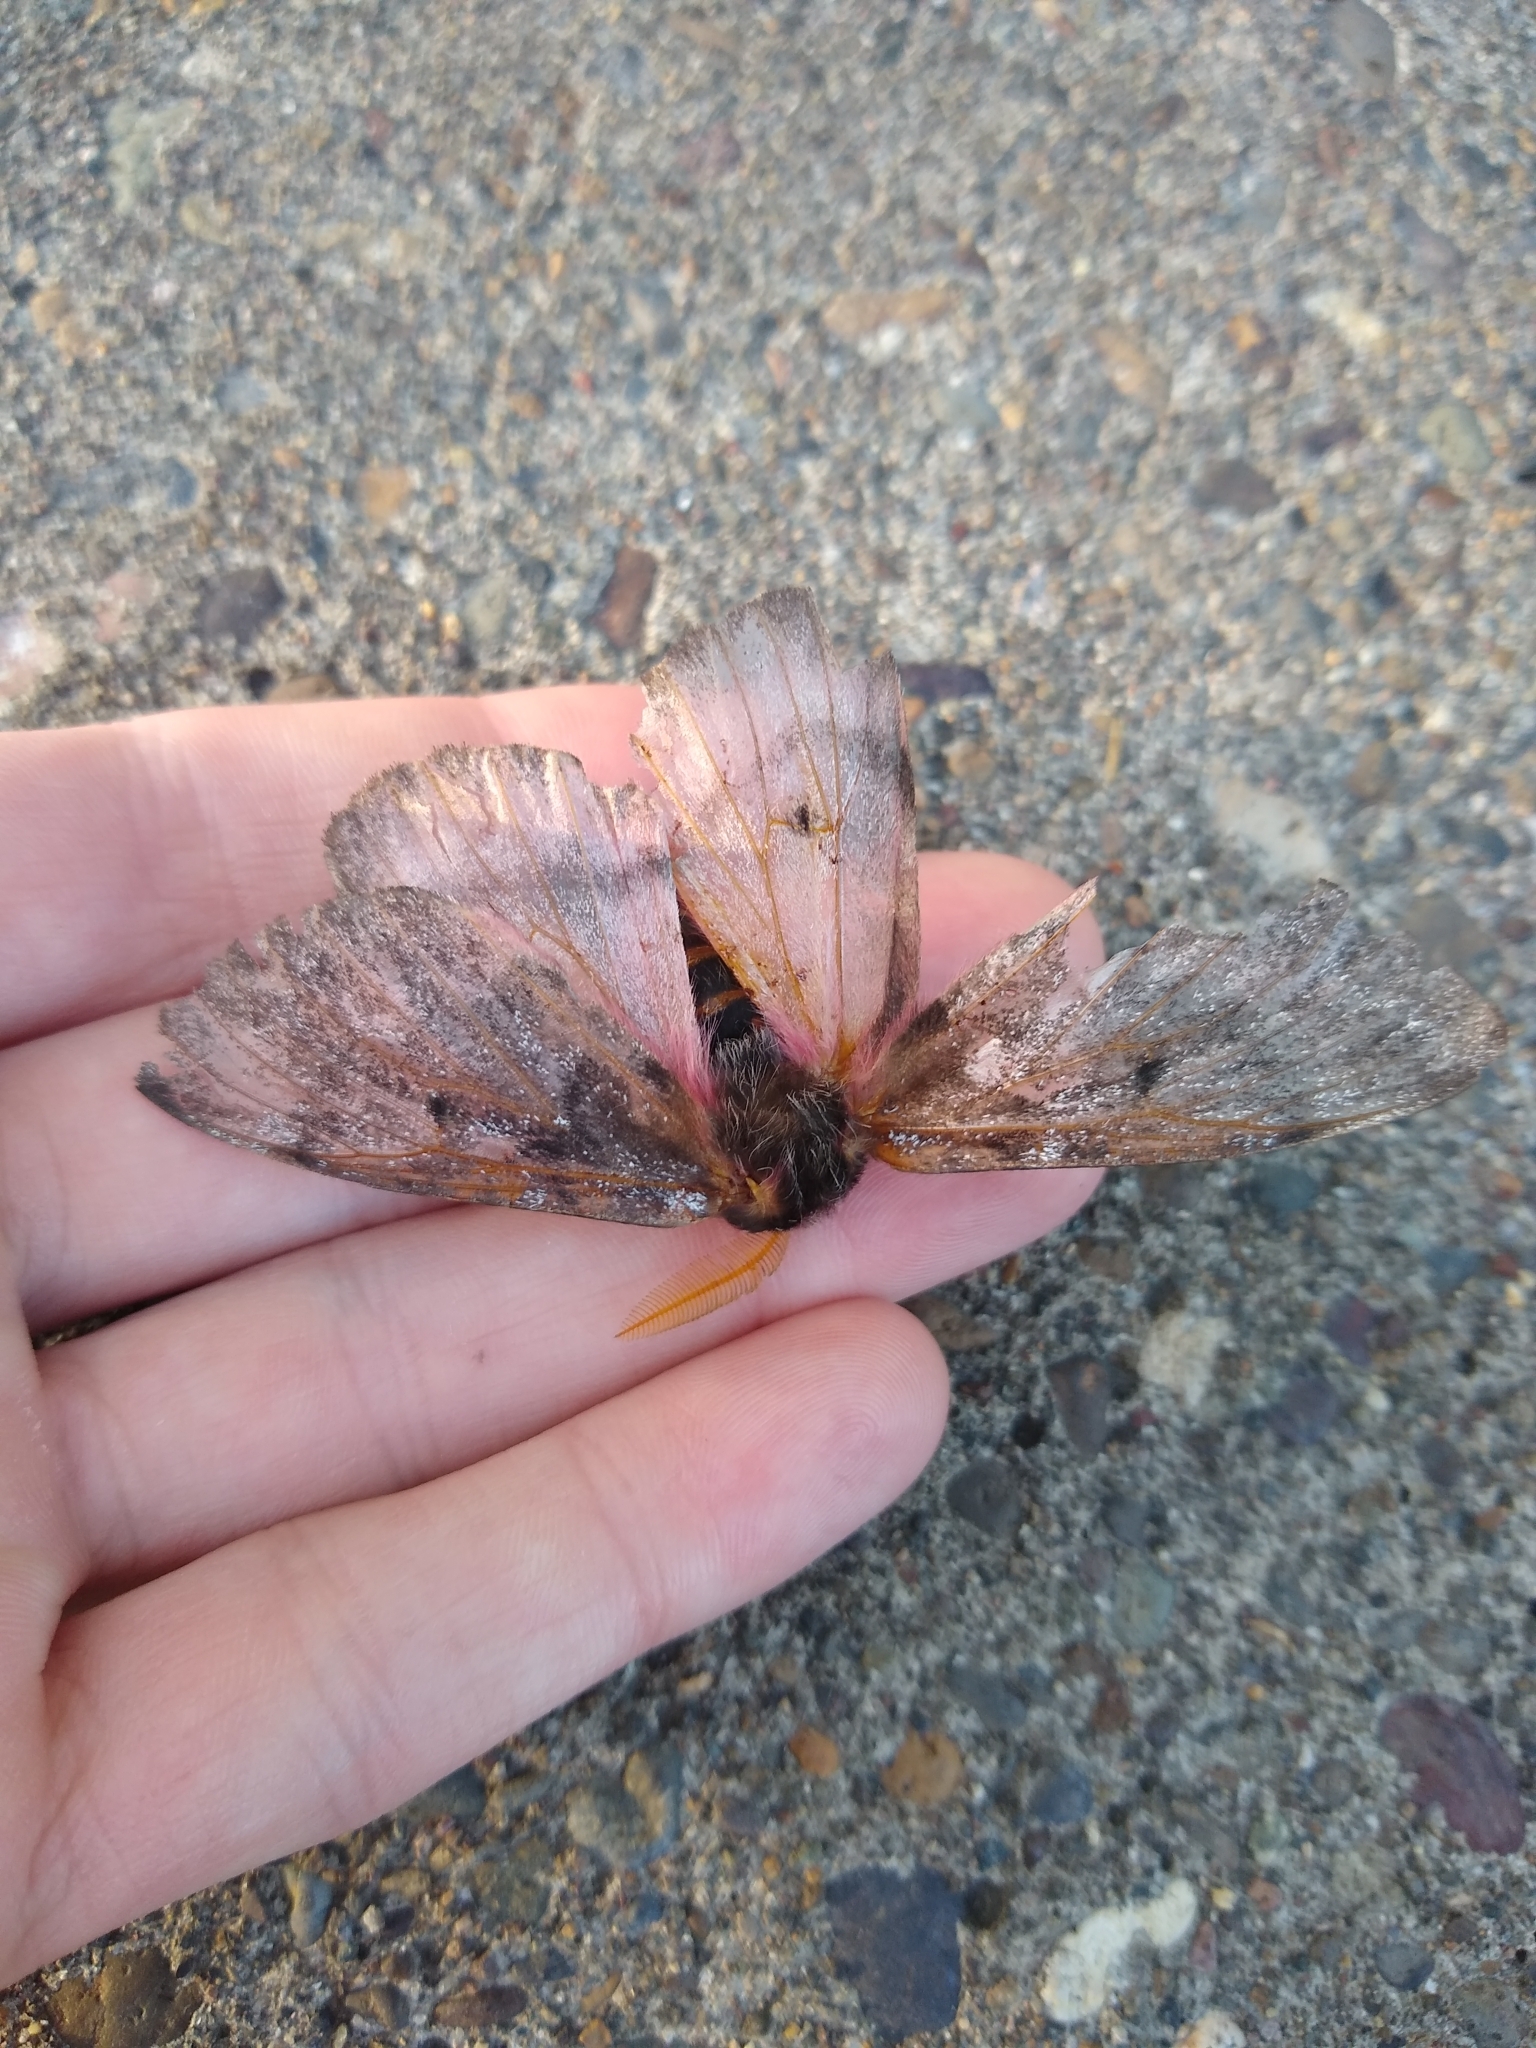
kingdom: Animalia
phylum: Arthropoda
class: Insecta
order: Lepidoptera
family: Saturniidae
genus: Coloradia
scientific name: Coloradia pandora
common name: Pandora pinemoth
